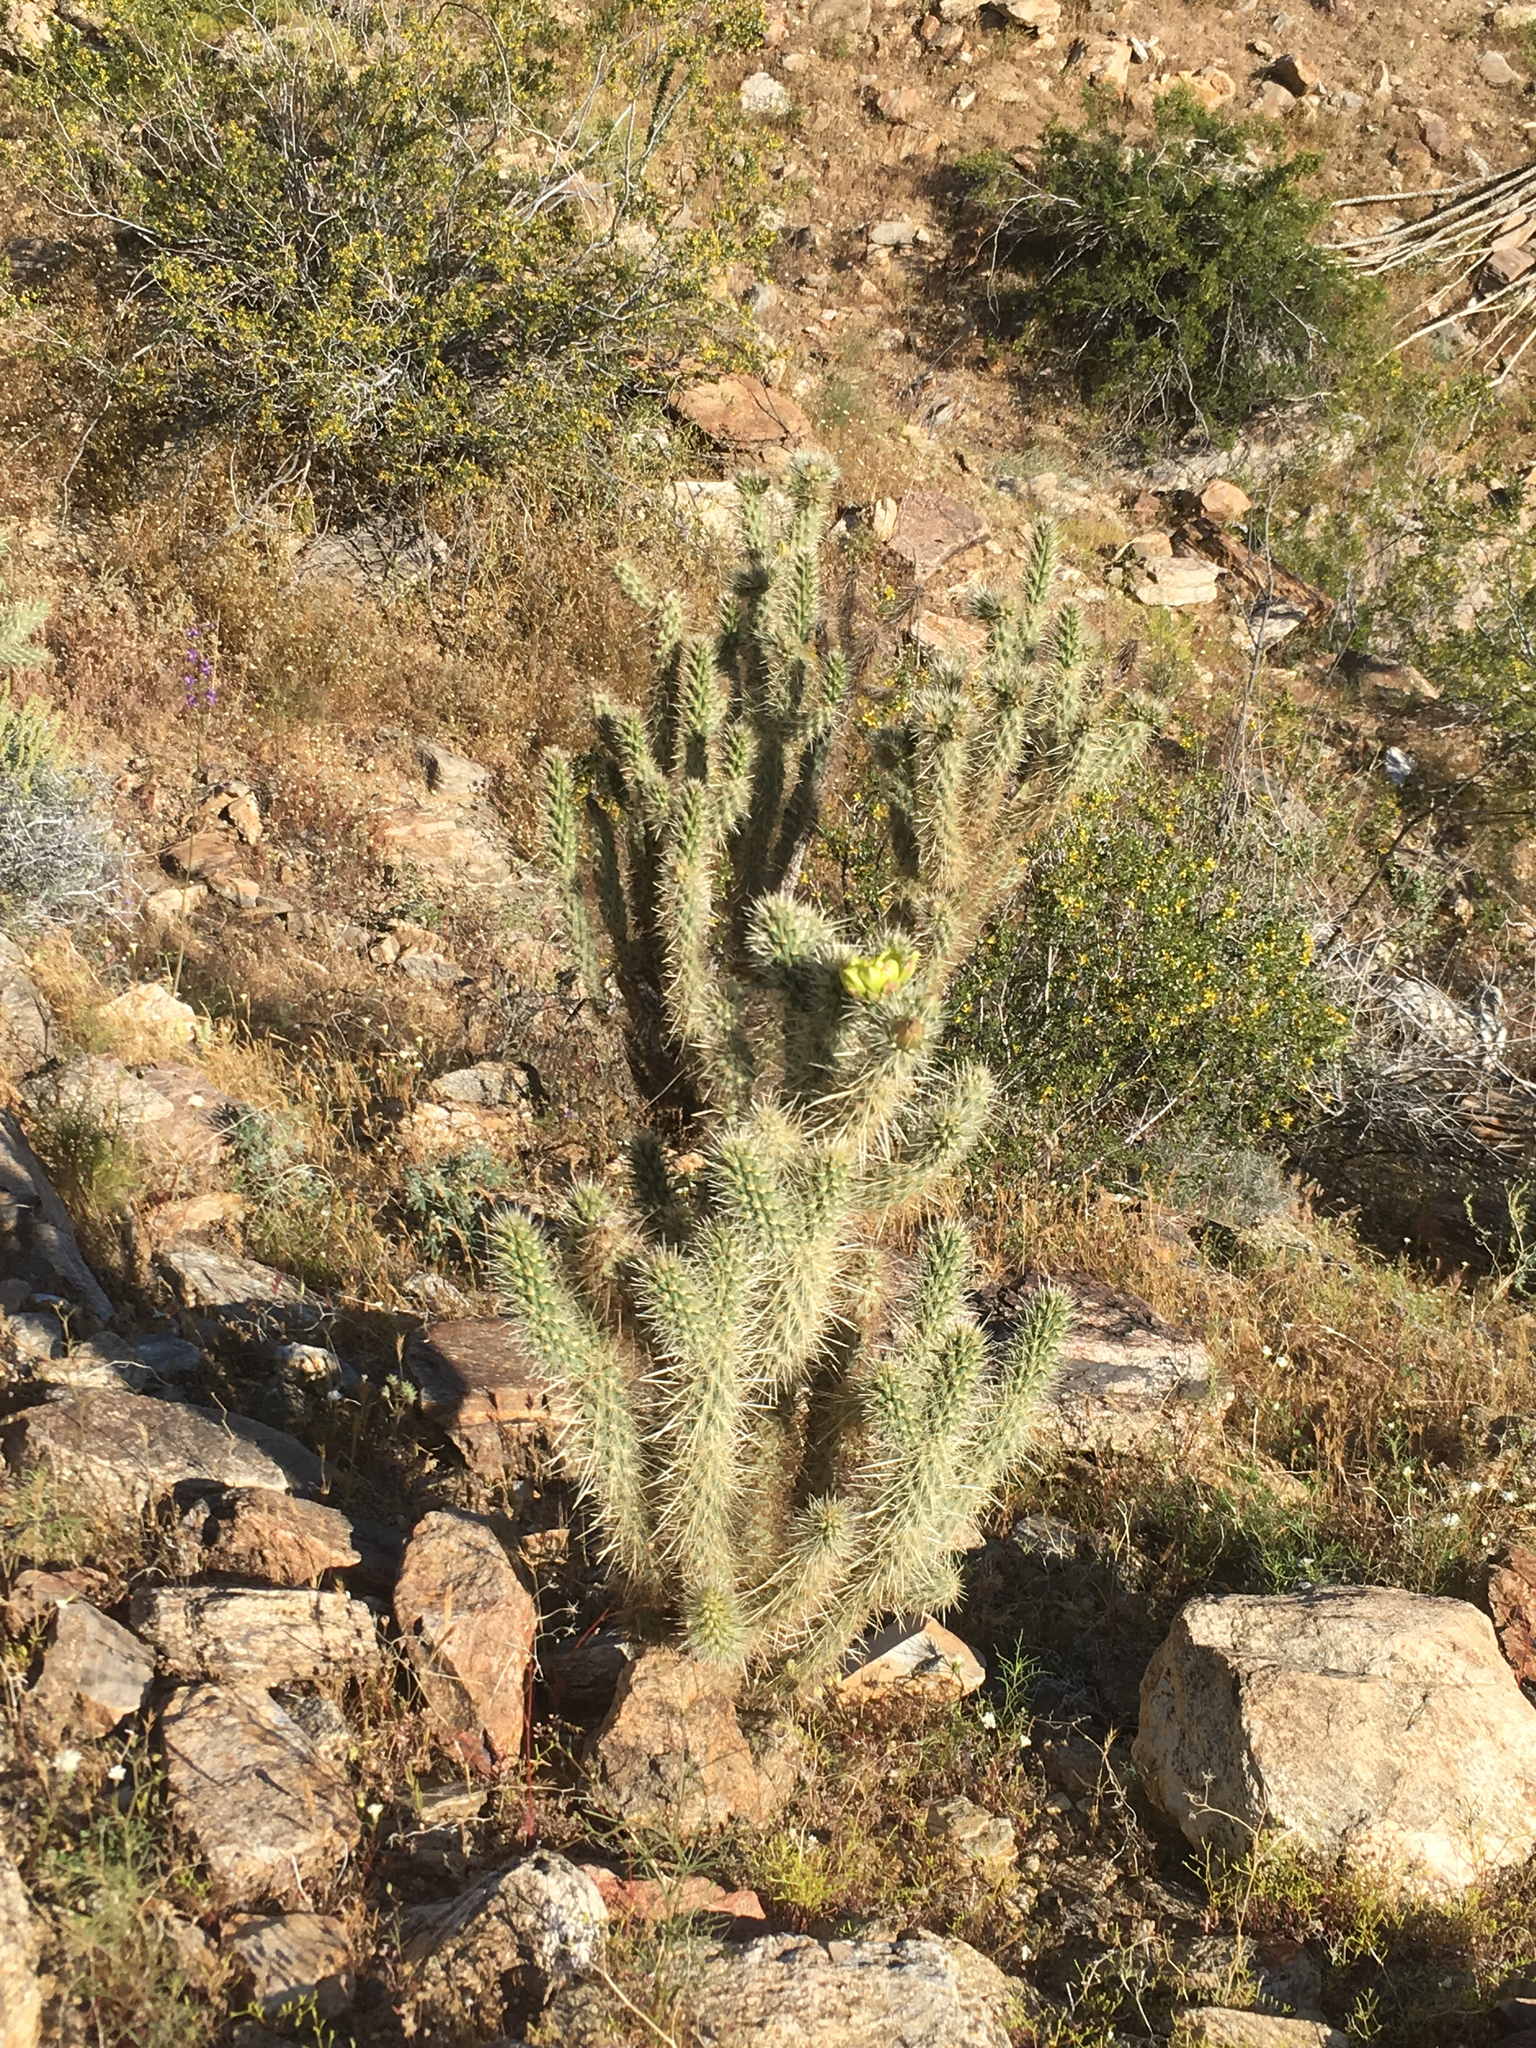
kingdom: Plantae
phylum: Tracheophyta
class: Magnoliopsida
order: Caryophyllales
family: Cactaceae
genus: Cylindropuntia
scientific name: Cylindropuntia ganderi
